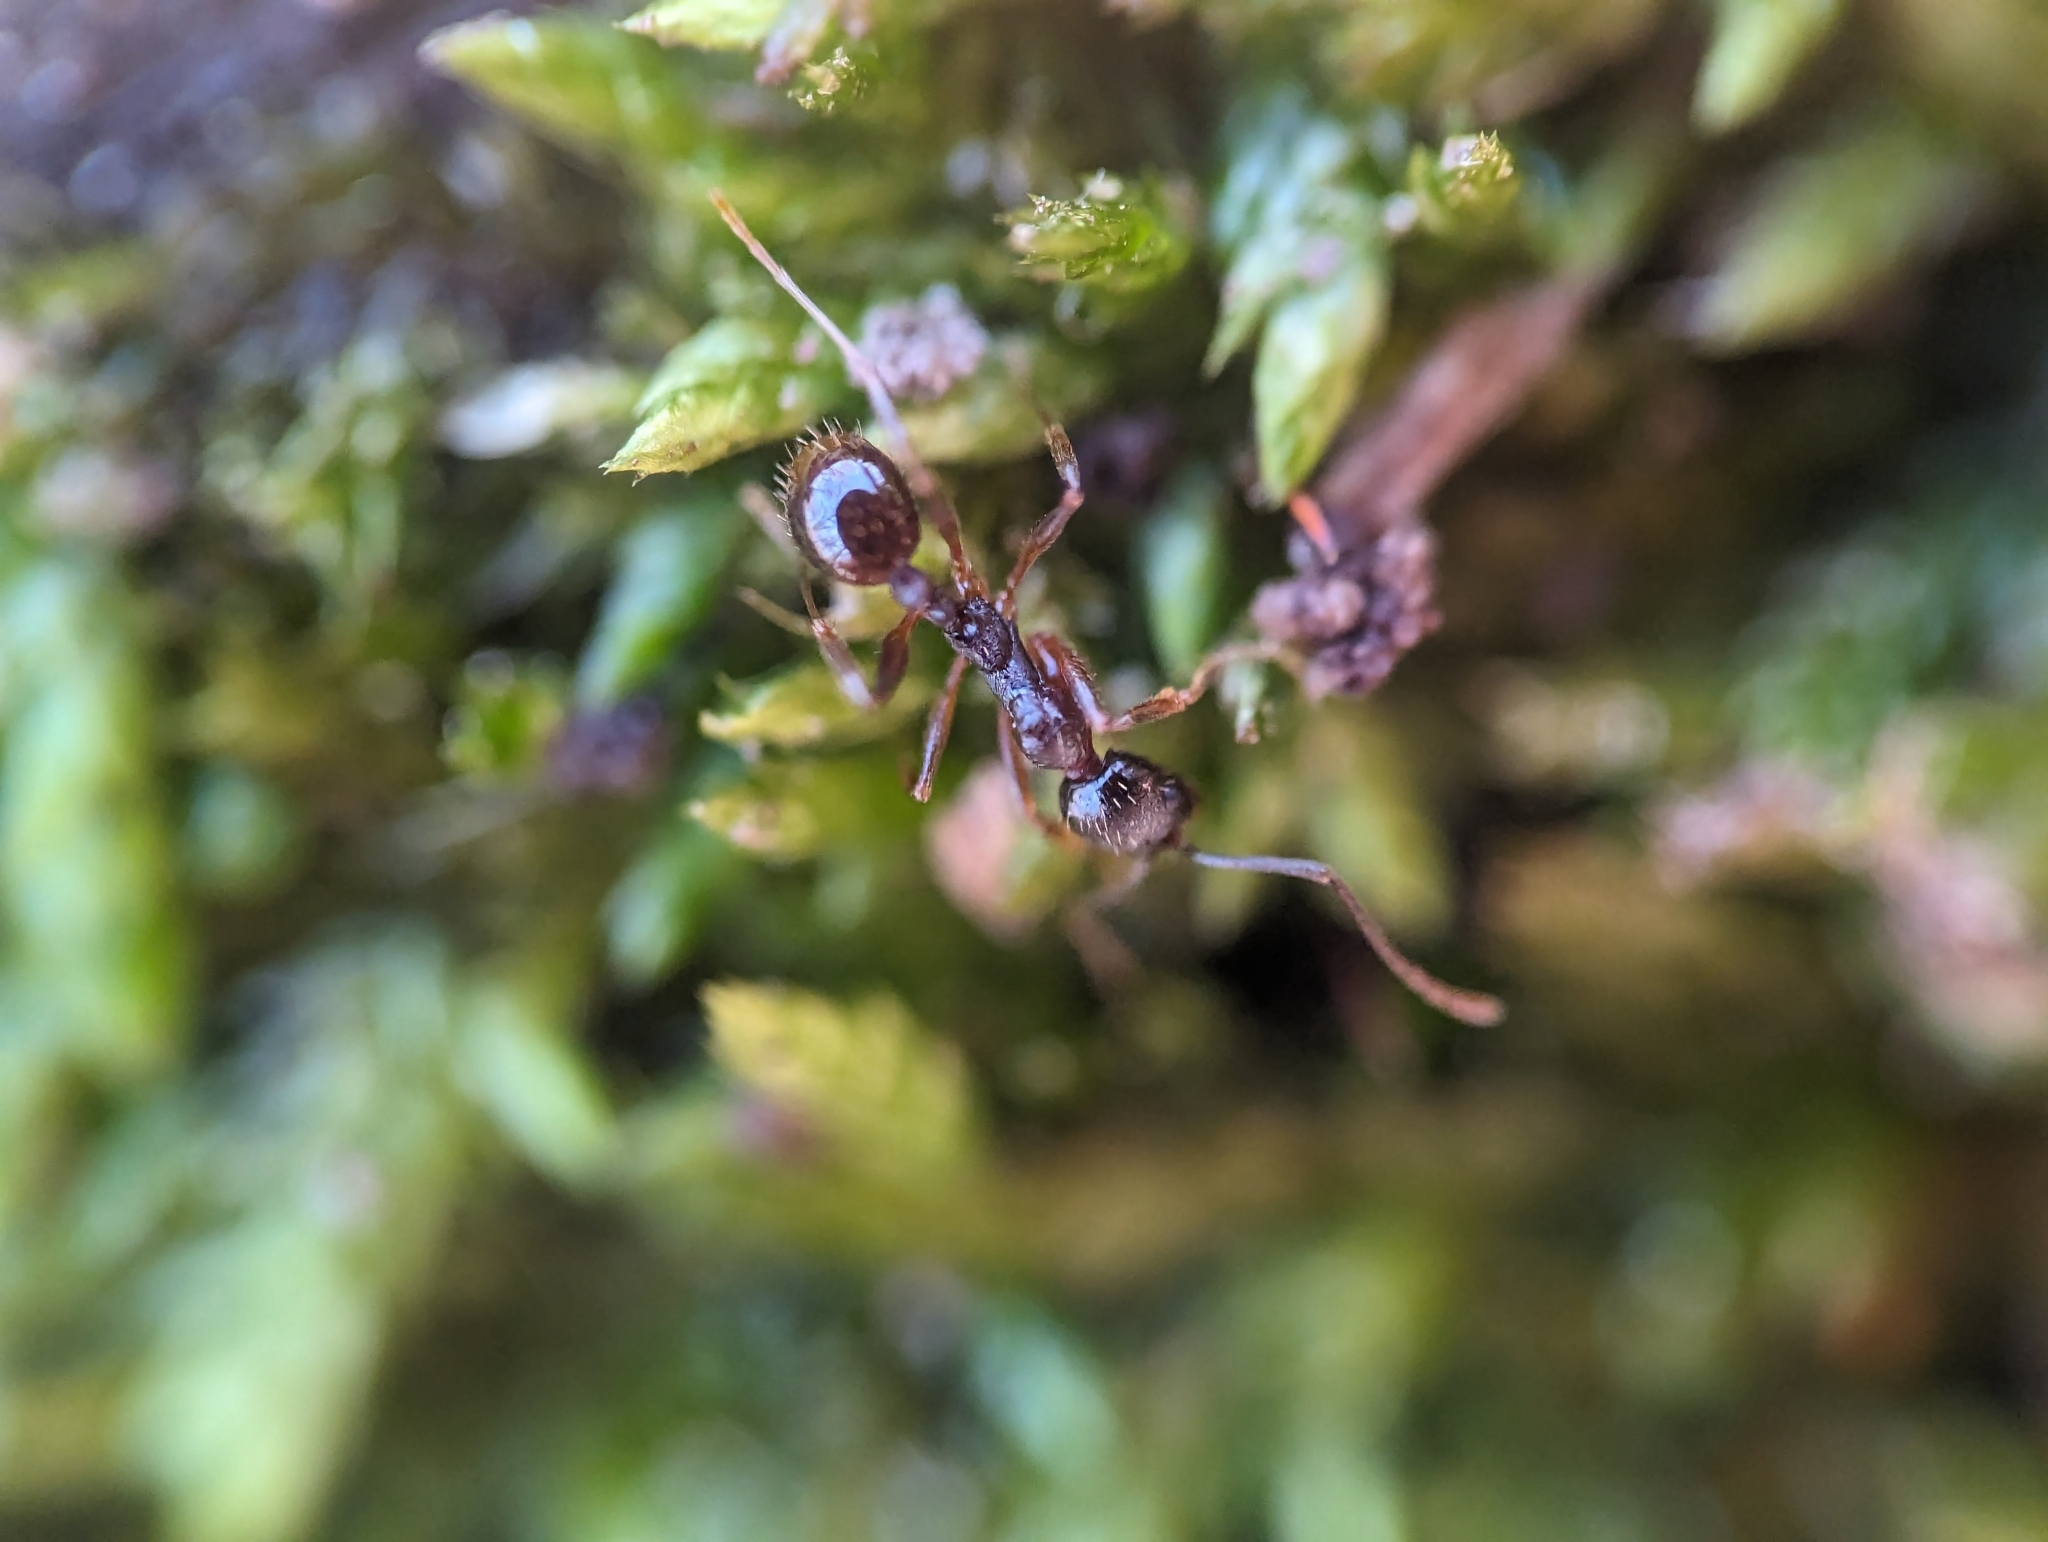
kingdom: Animalia
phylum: Arthropoda
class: Insecta
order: Hymenoptera
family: Formicidae
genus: Aphaenogaster
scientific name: Aphaenogaster rudis
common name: Winnow ant
